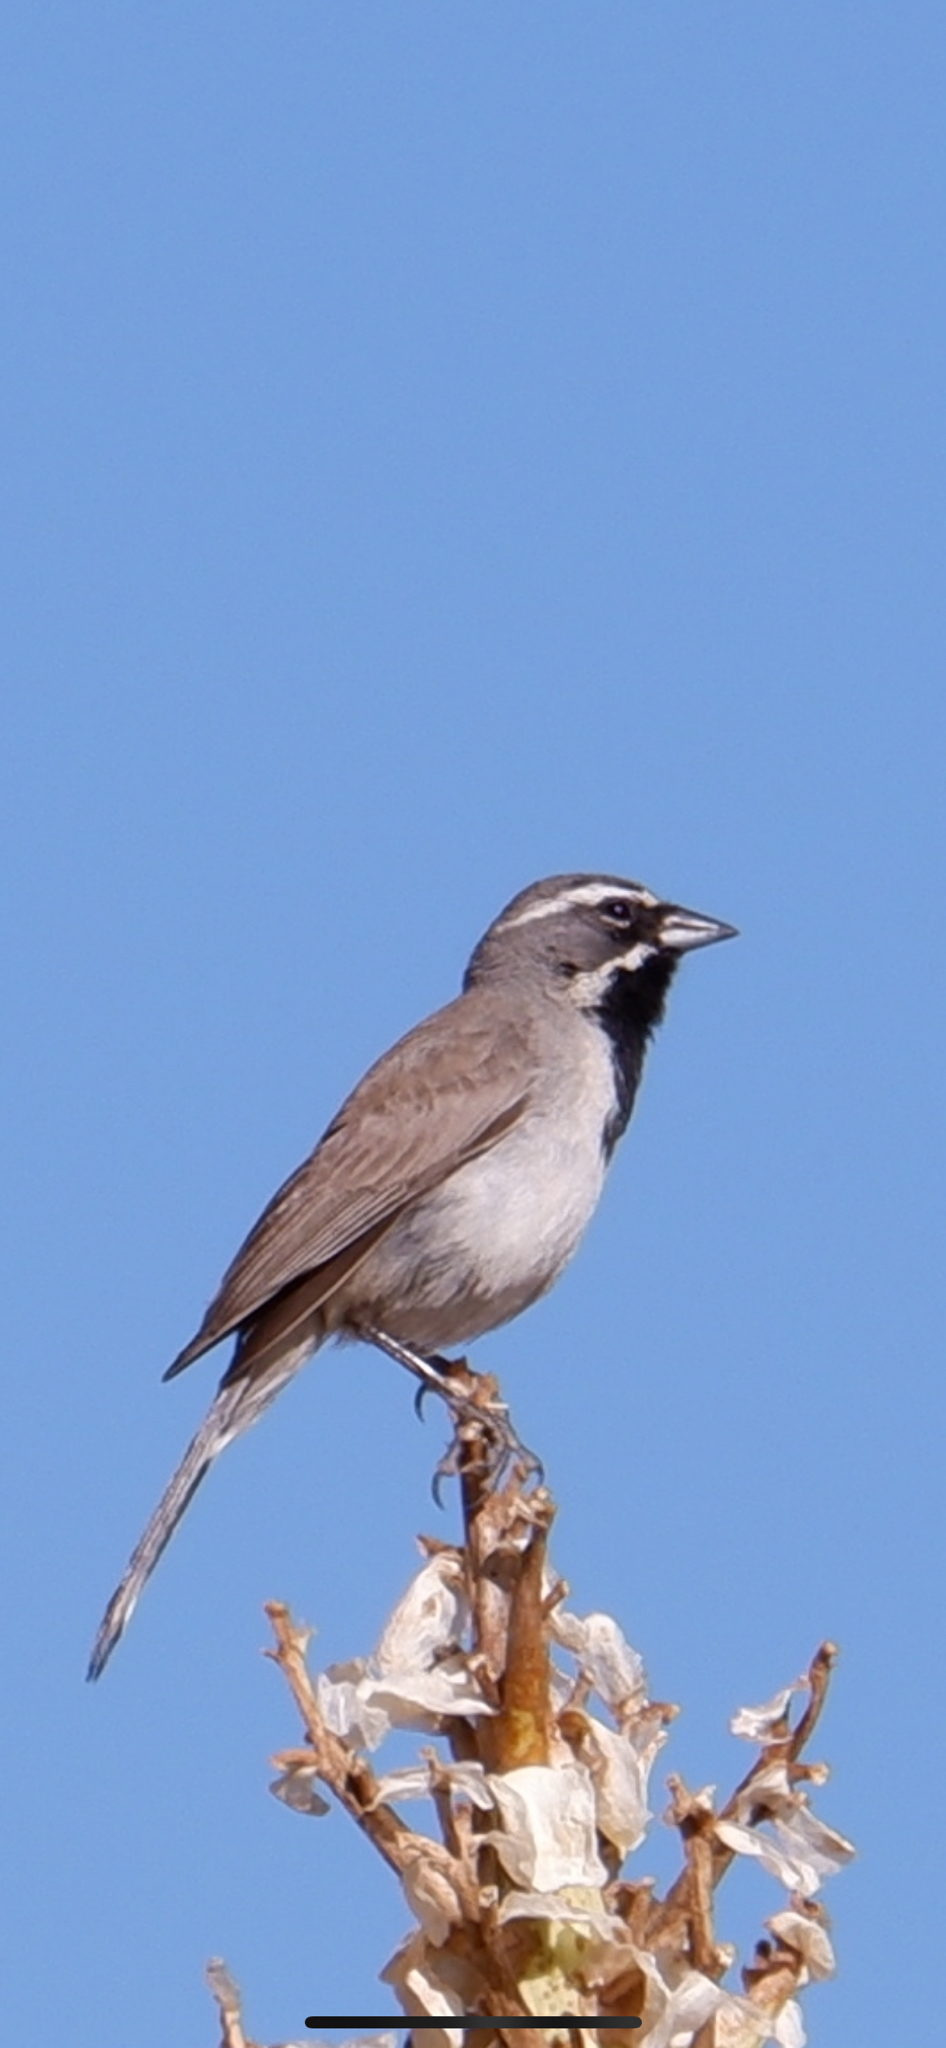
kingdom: Animalia
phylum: Chordata
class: Aves
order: Passeriformes
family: Passerellidae
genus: Amphispiza
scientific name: Amphispiza bilineata
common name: Black-throated sparrow
